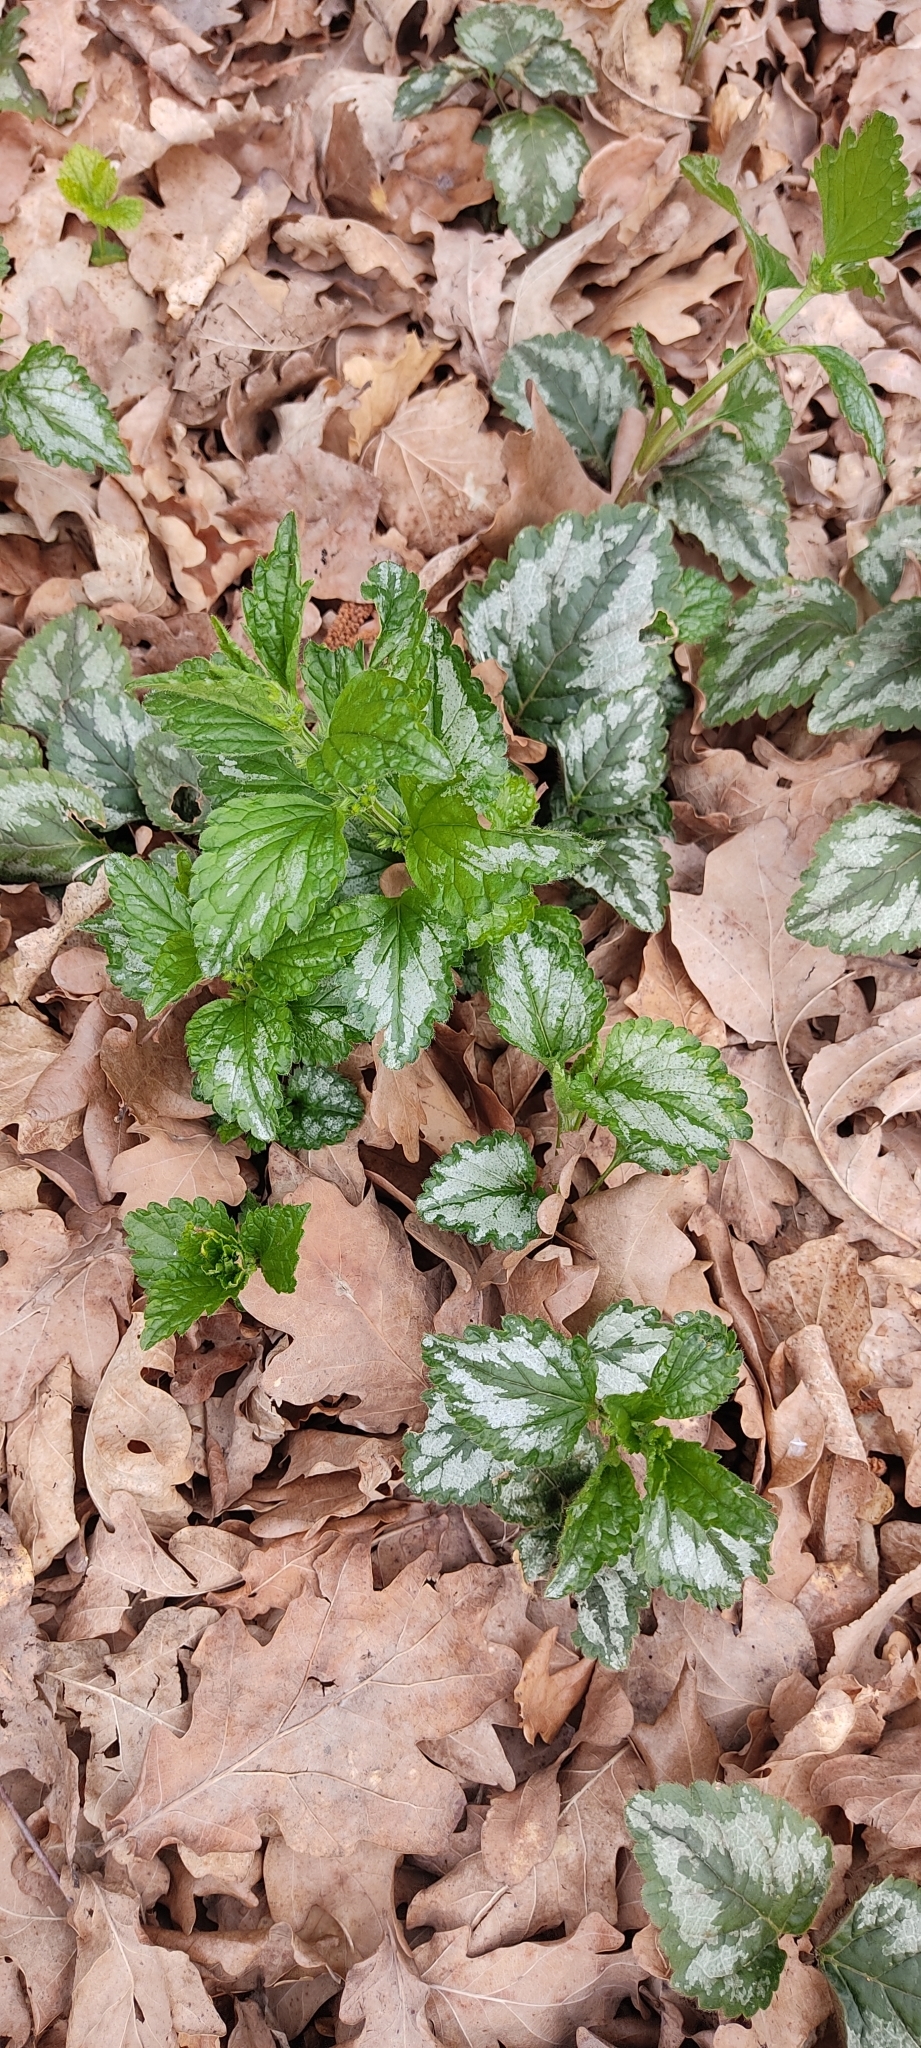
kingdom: Plantae
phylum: Tracheophyta
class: Magnoliopsida
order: Lamiales
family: Lamiaceae
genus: Lamium
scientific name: Lamium galeobdolon
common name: Yellow archangel
